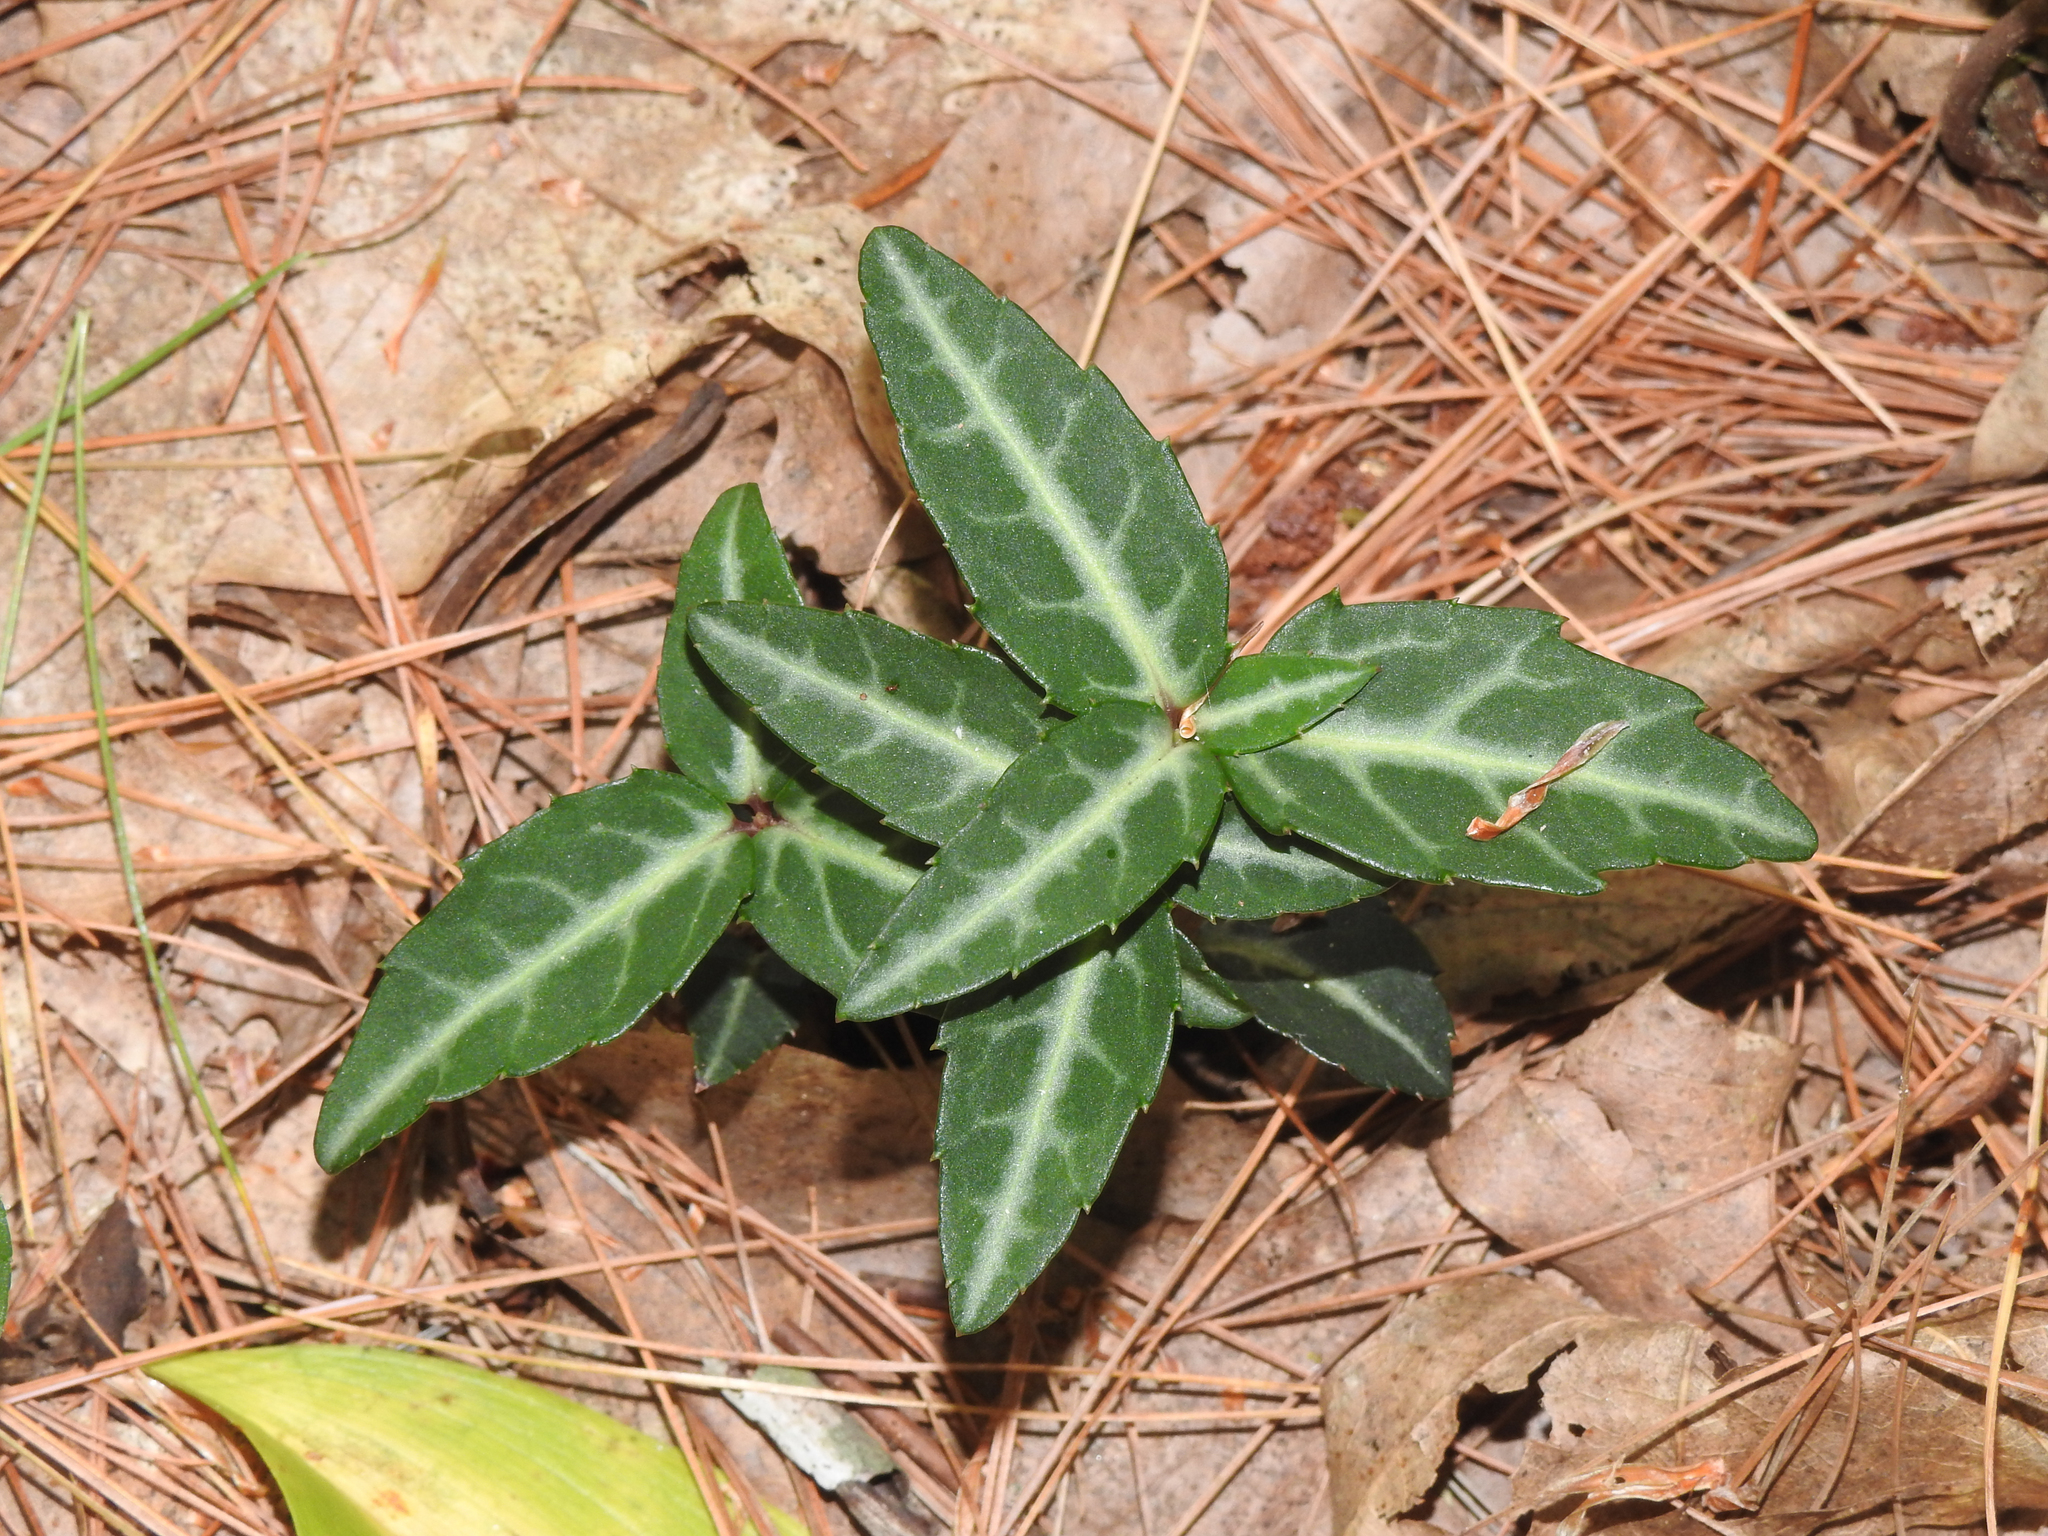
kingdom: Plantae
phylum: Tracheophyta
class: Magnoliopsida
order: Ericales
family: Ericaceae
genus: Chimaphila
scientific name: Chimaphila maculata
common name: Spotted pipsissewa
